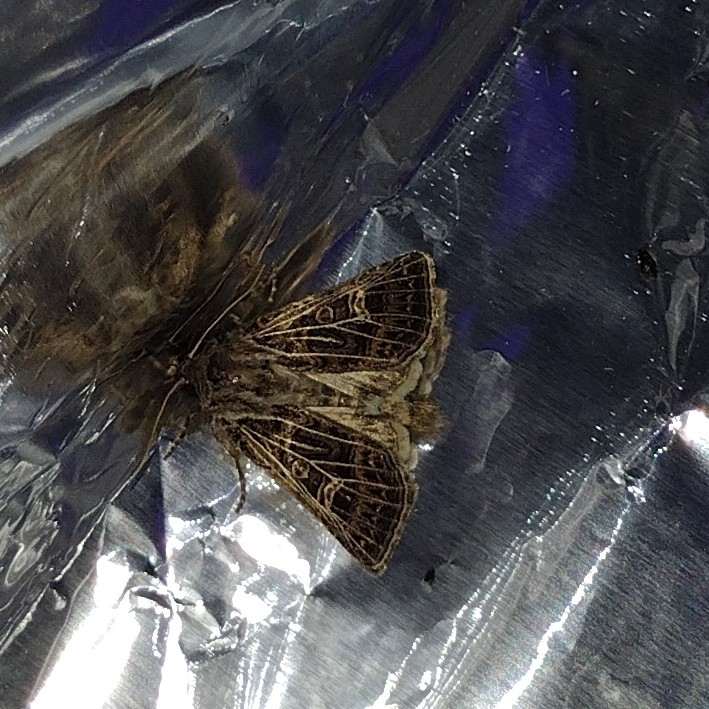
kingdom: Animalia
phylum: Arthropoda
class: Insecta
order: Lepidoptera
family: Noctuidae
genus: Tholera
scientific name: Tholera decimalis
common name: Feathered gothic
